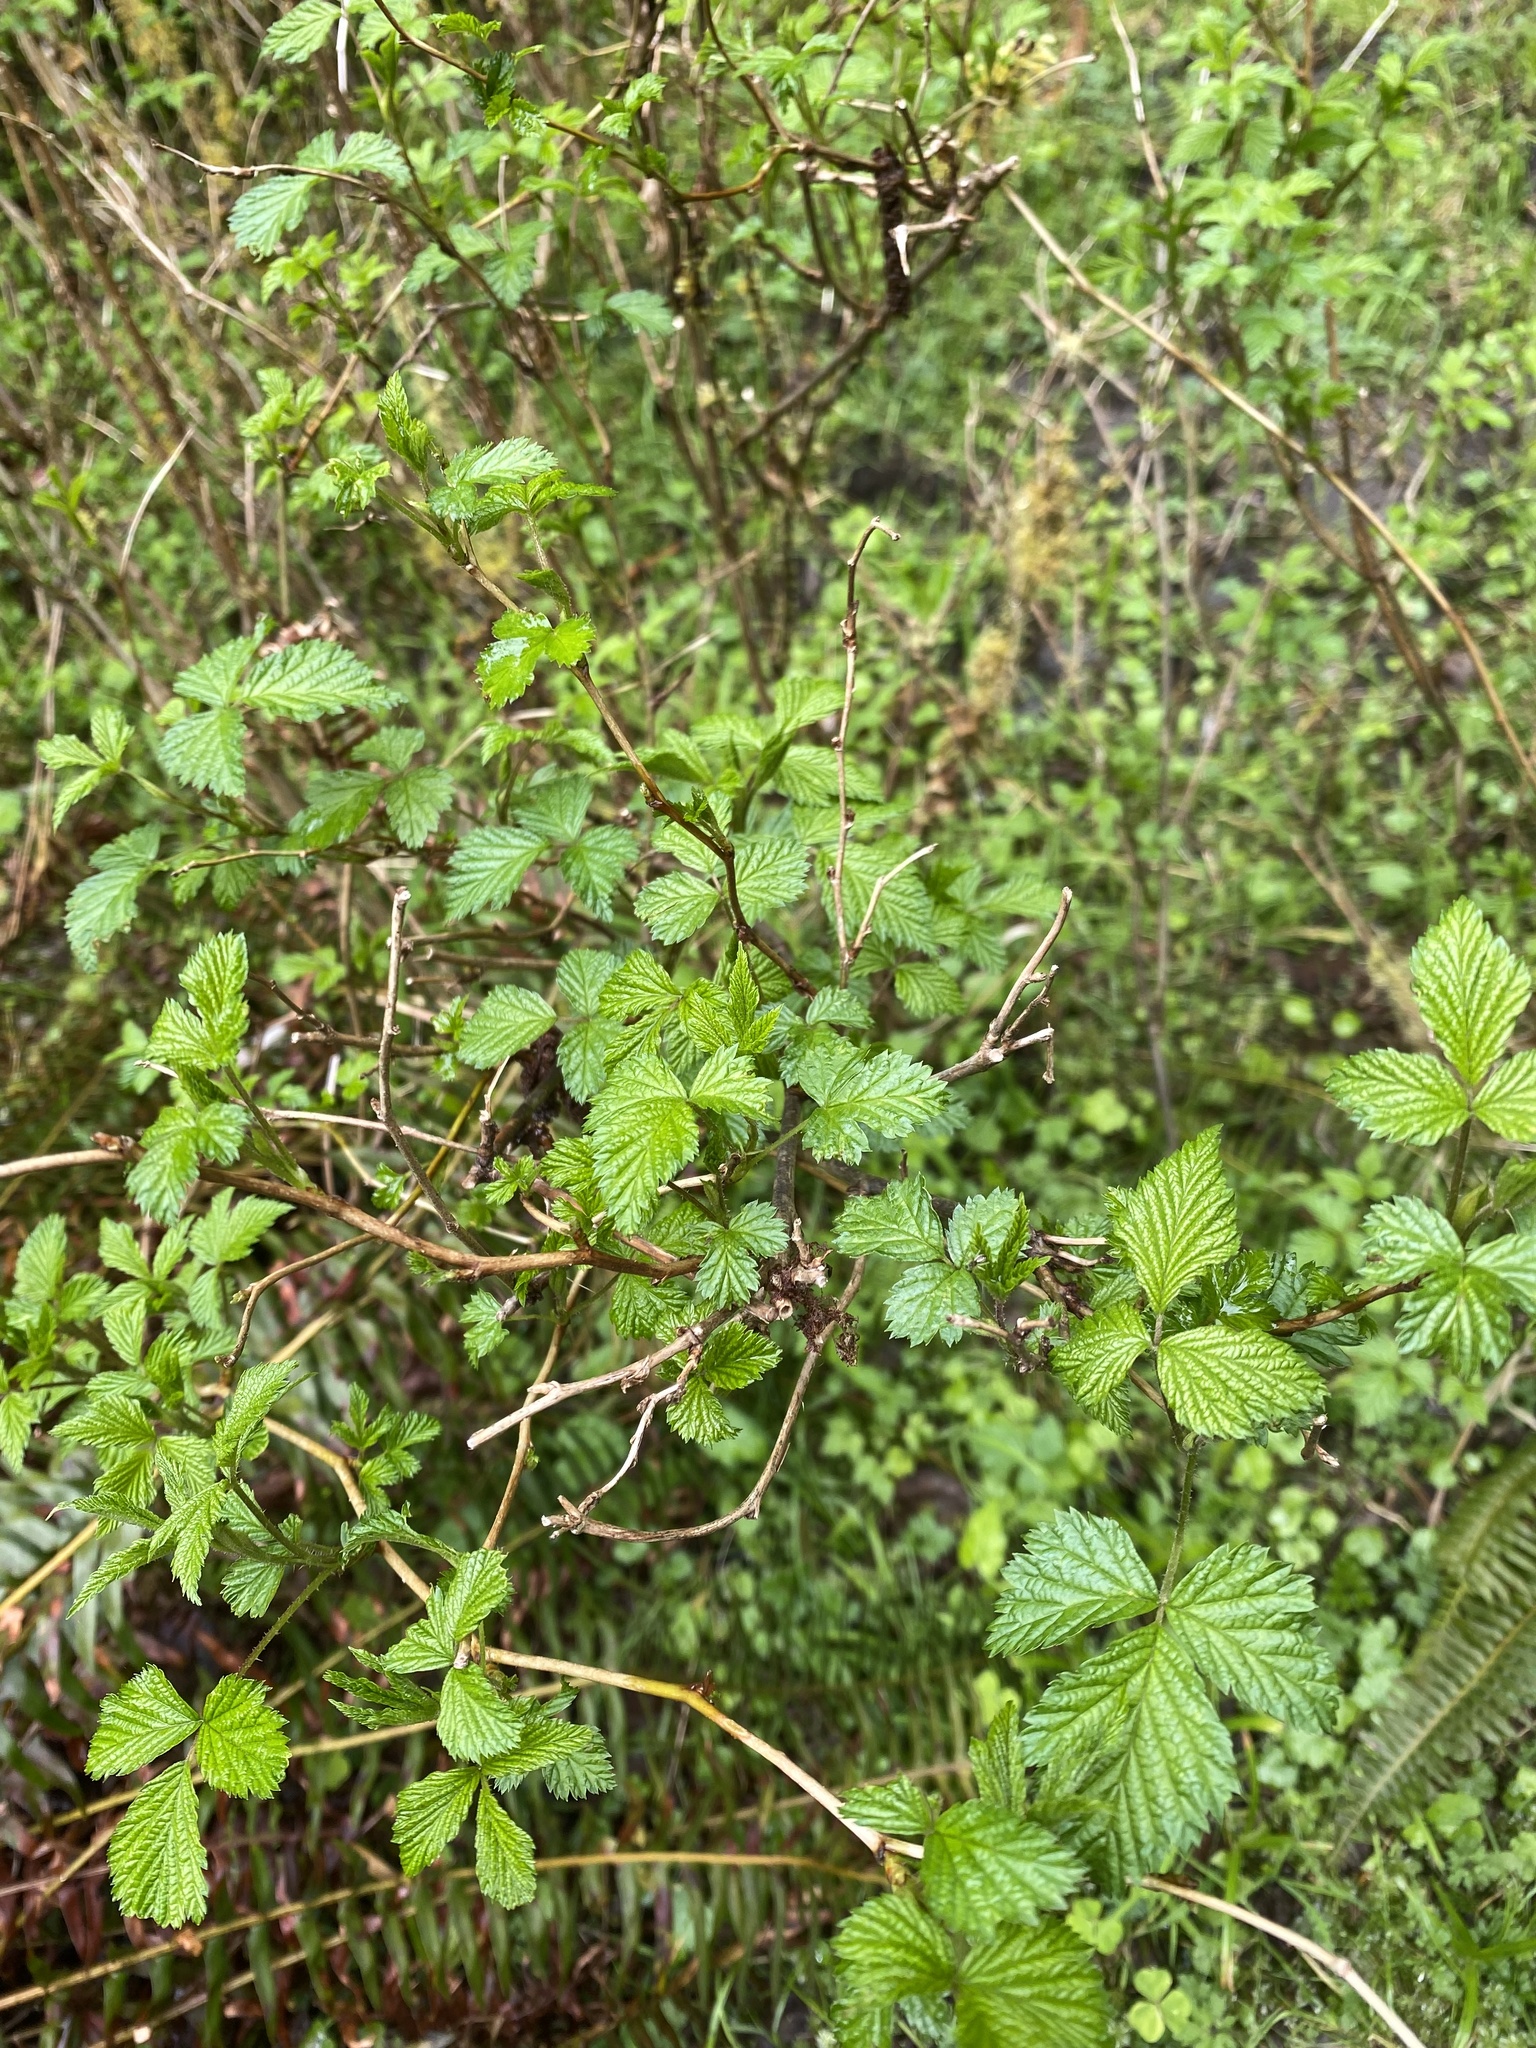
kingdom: Plantae
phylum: Tracheophyta
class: Magnoliopsida
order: Rosales
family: Rosaceae
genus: Rubus
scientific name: Rubus spectabilis
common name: Salmonberry
